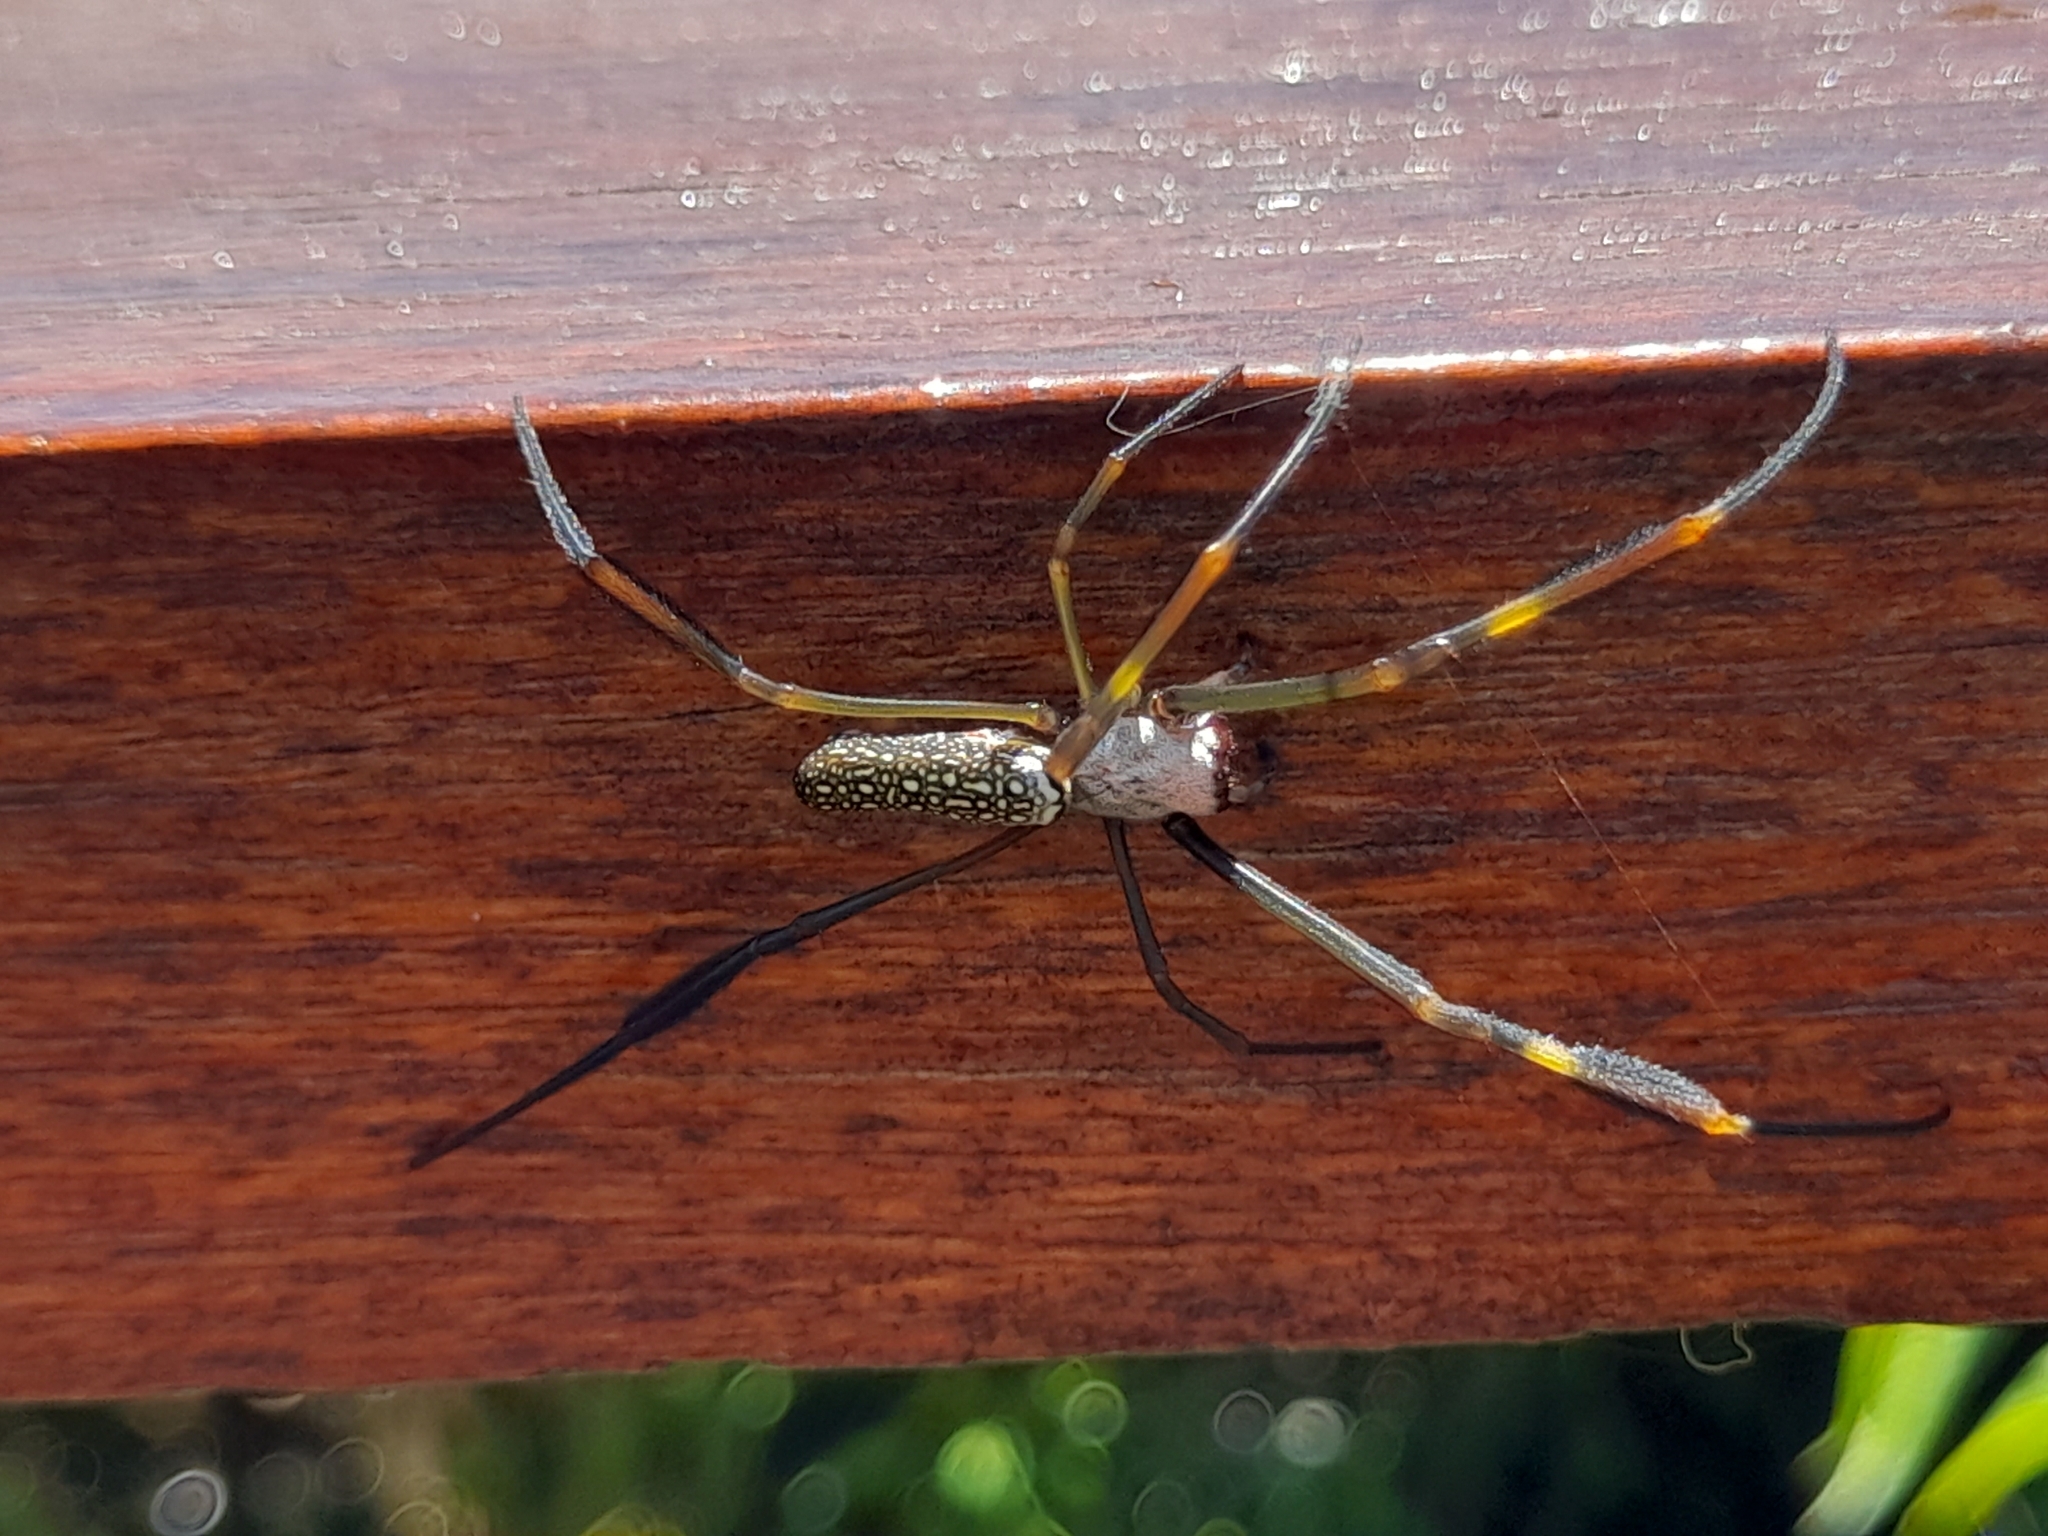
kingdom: Animalia
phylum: Arthropoda
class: Arachnida
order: Araneae
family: Araneidae
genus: Trichonephila
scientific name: Trichonephila clavipes
